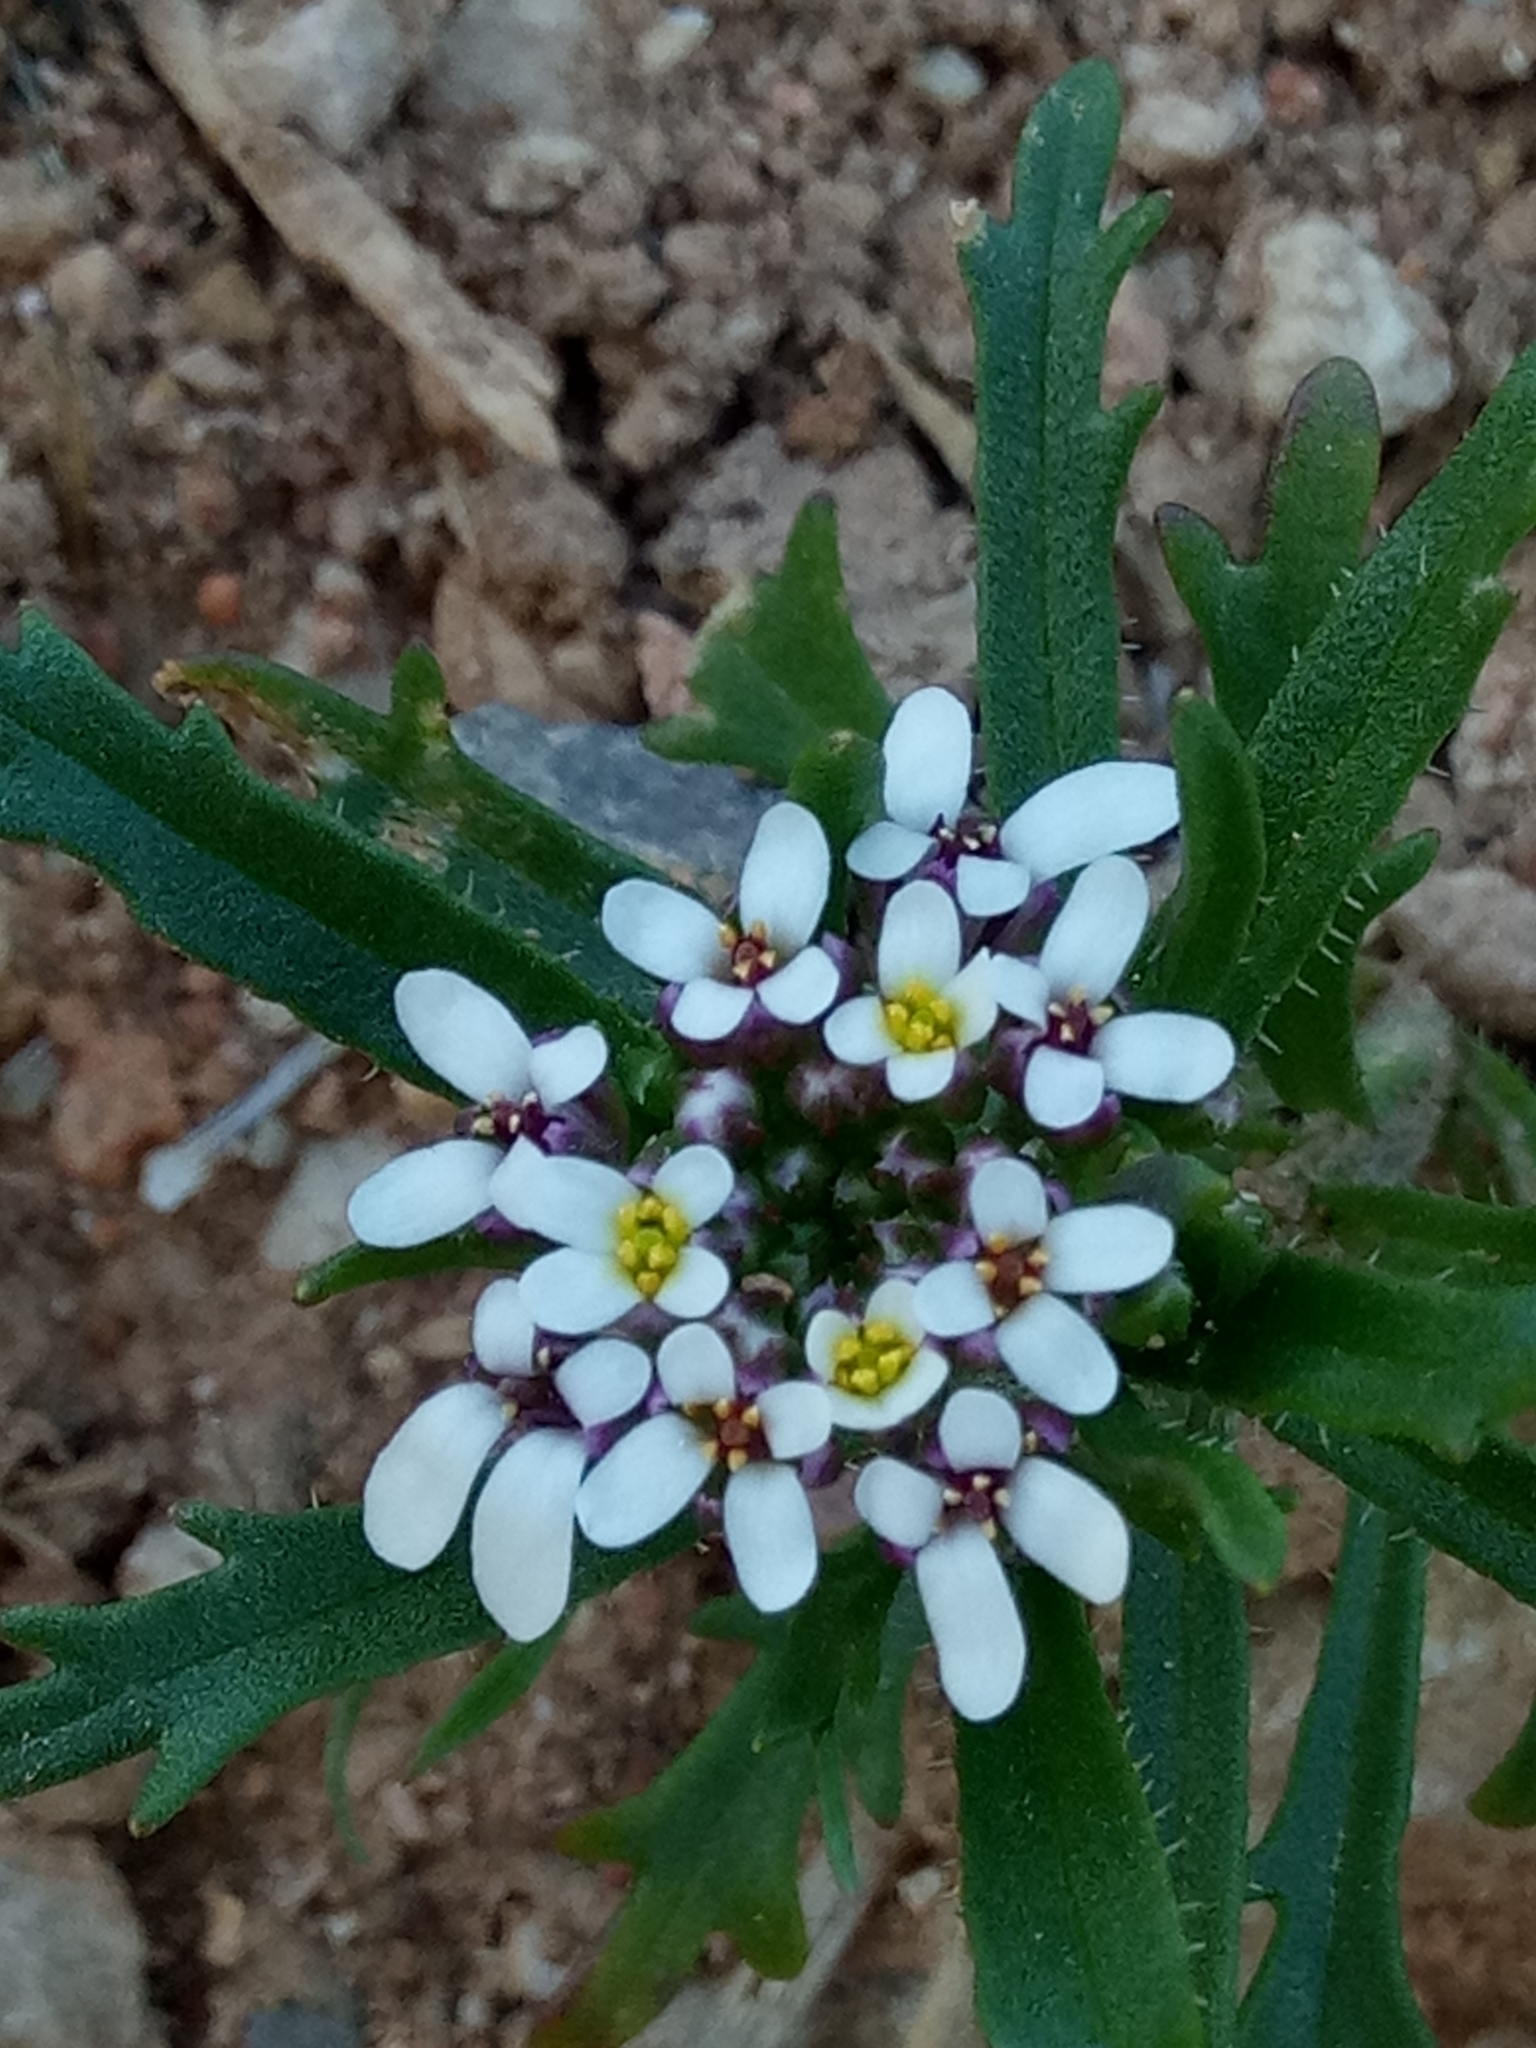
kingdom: Plantae
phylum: Tracheophyta
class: Magnoliopsida
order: Brassicales
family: Brassicaceae
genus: Iberis
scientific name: Iberis odorata
